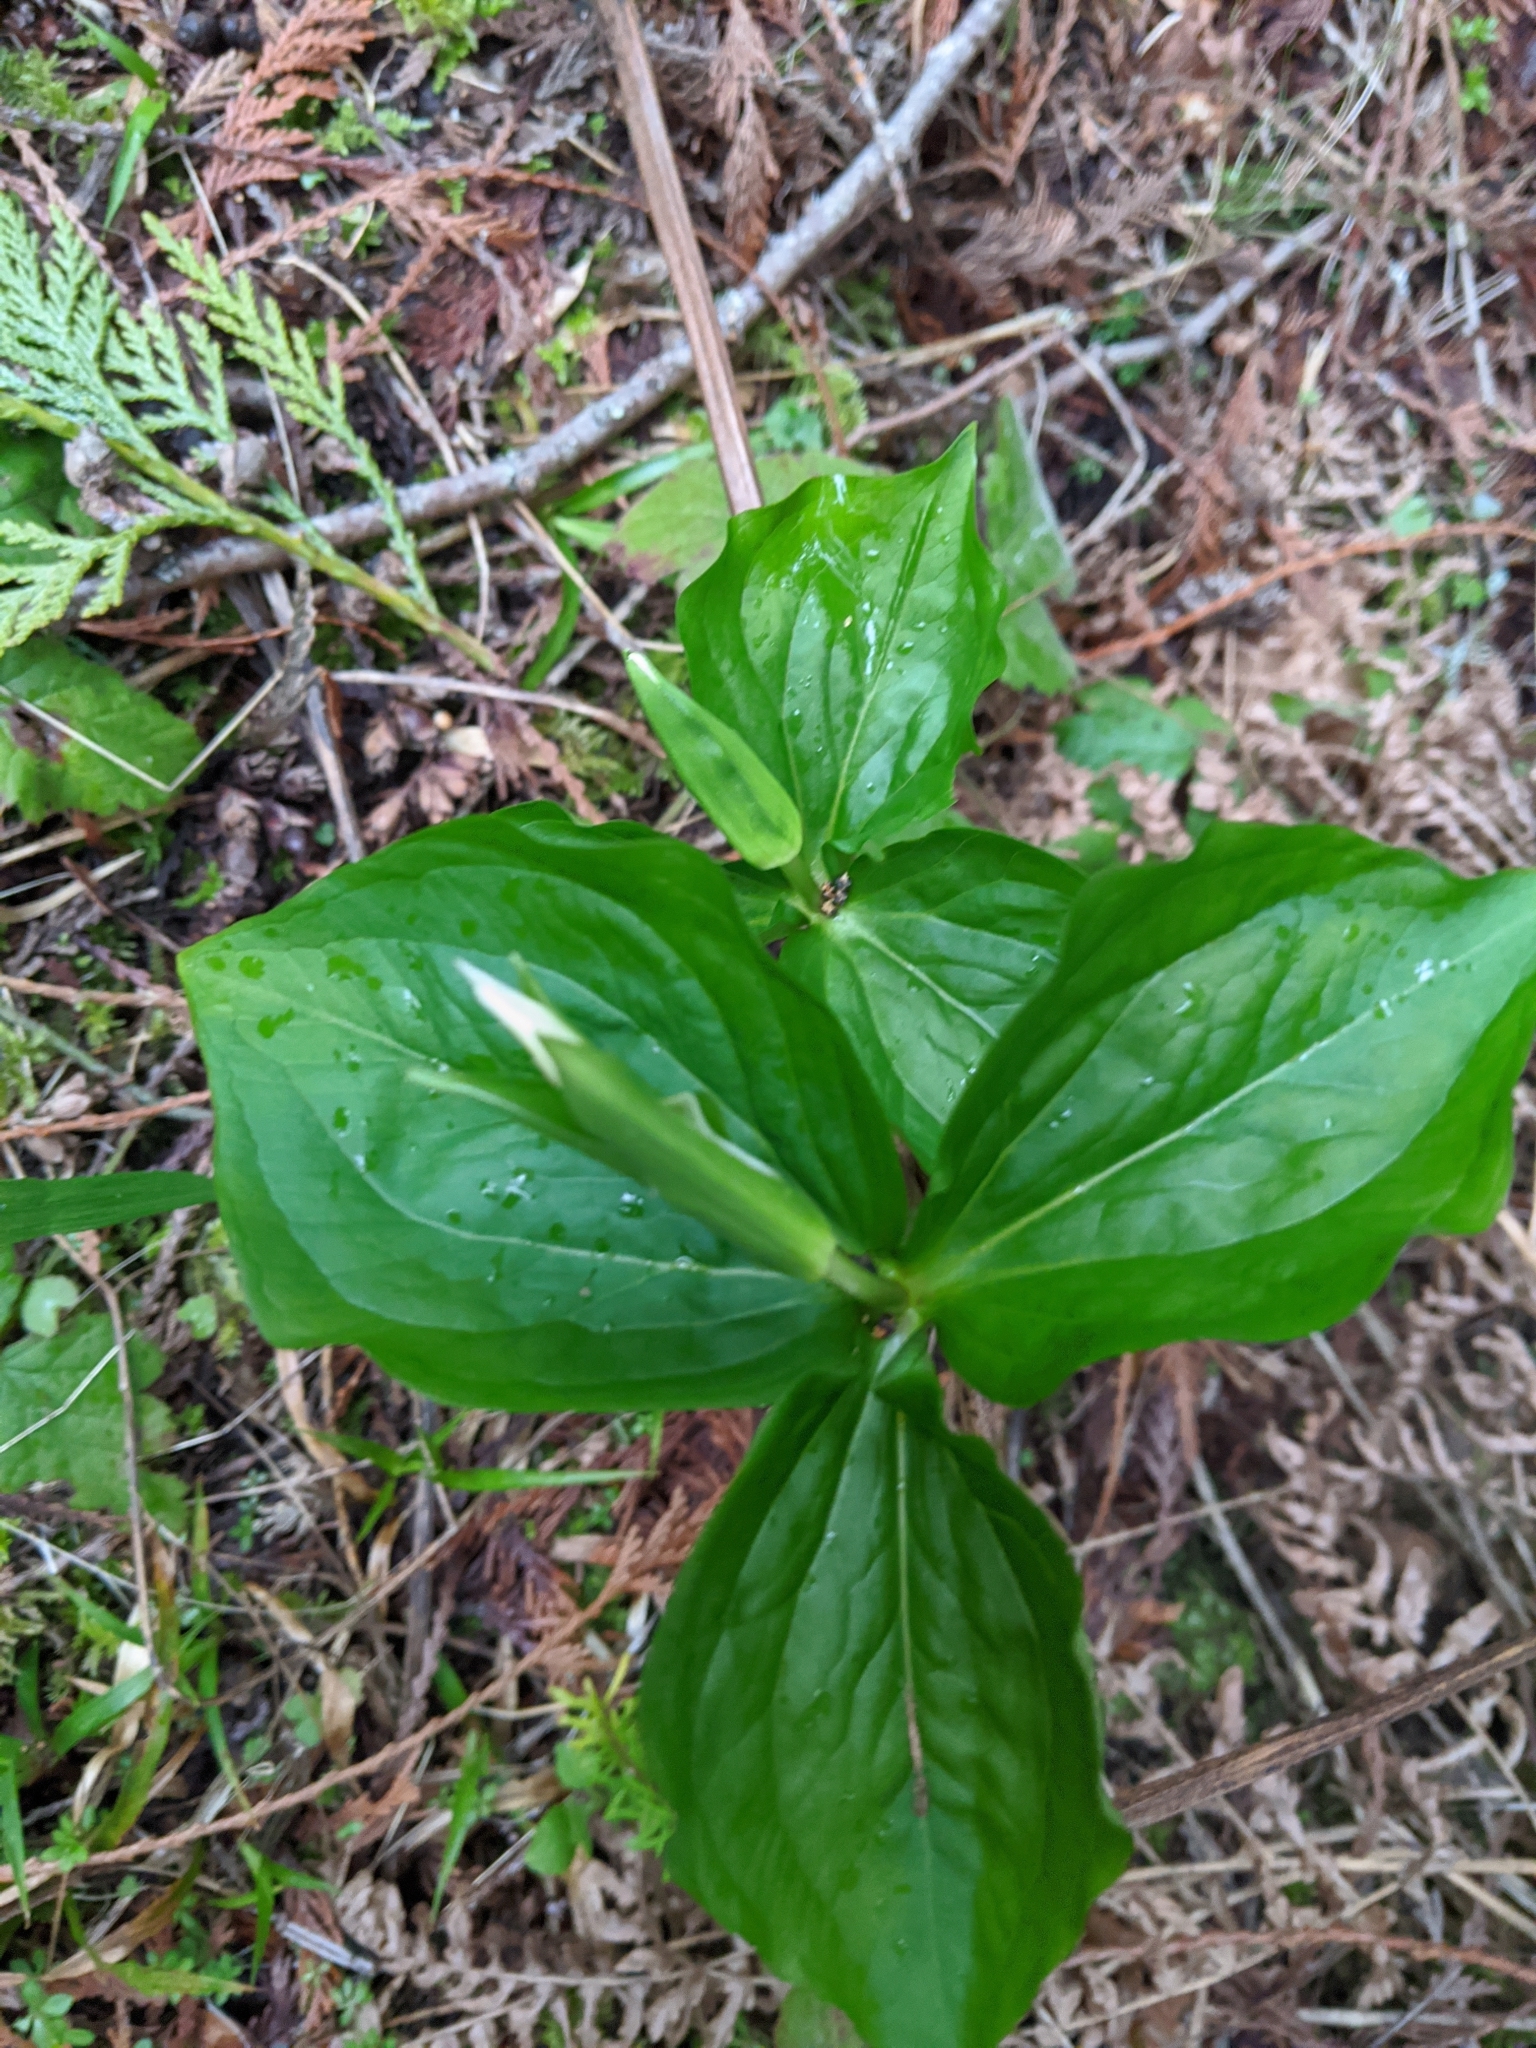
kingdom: Plantae
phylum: Tracheophyta
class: Liliopsida
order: Liliales
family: Melanthiaceae
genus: Trillium
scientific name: Trillium ovatum
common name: Pacific trillium
